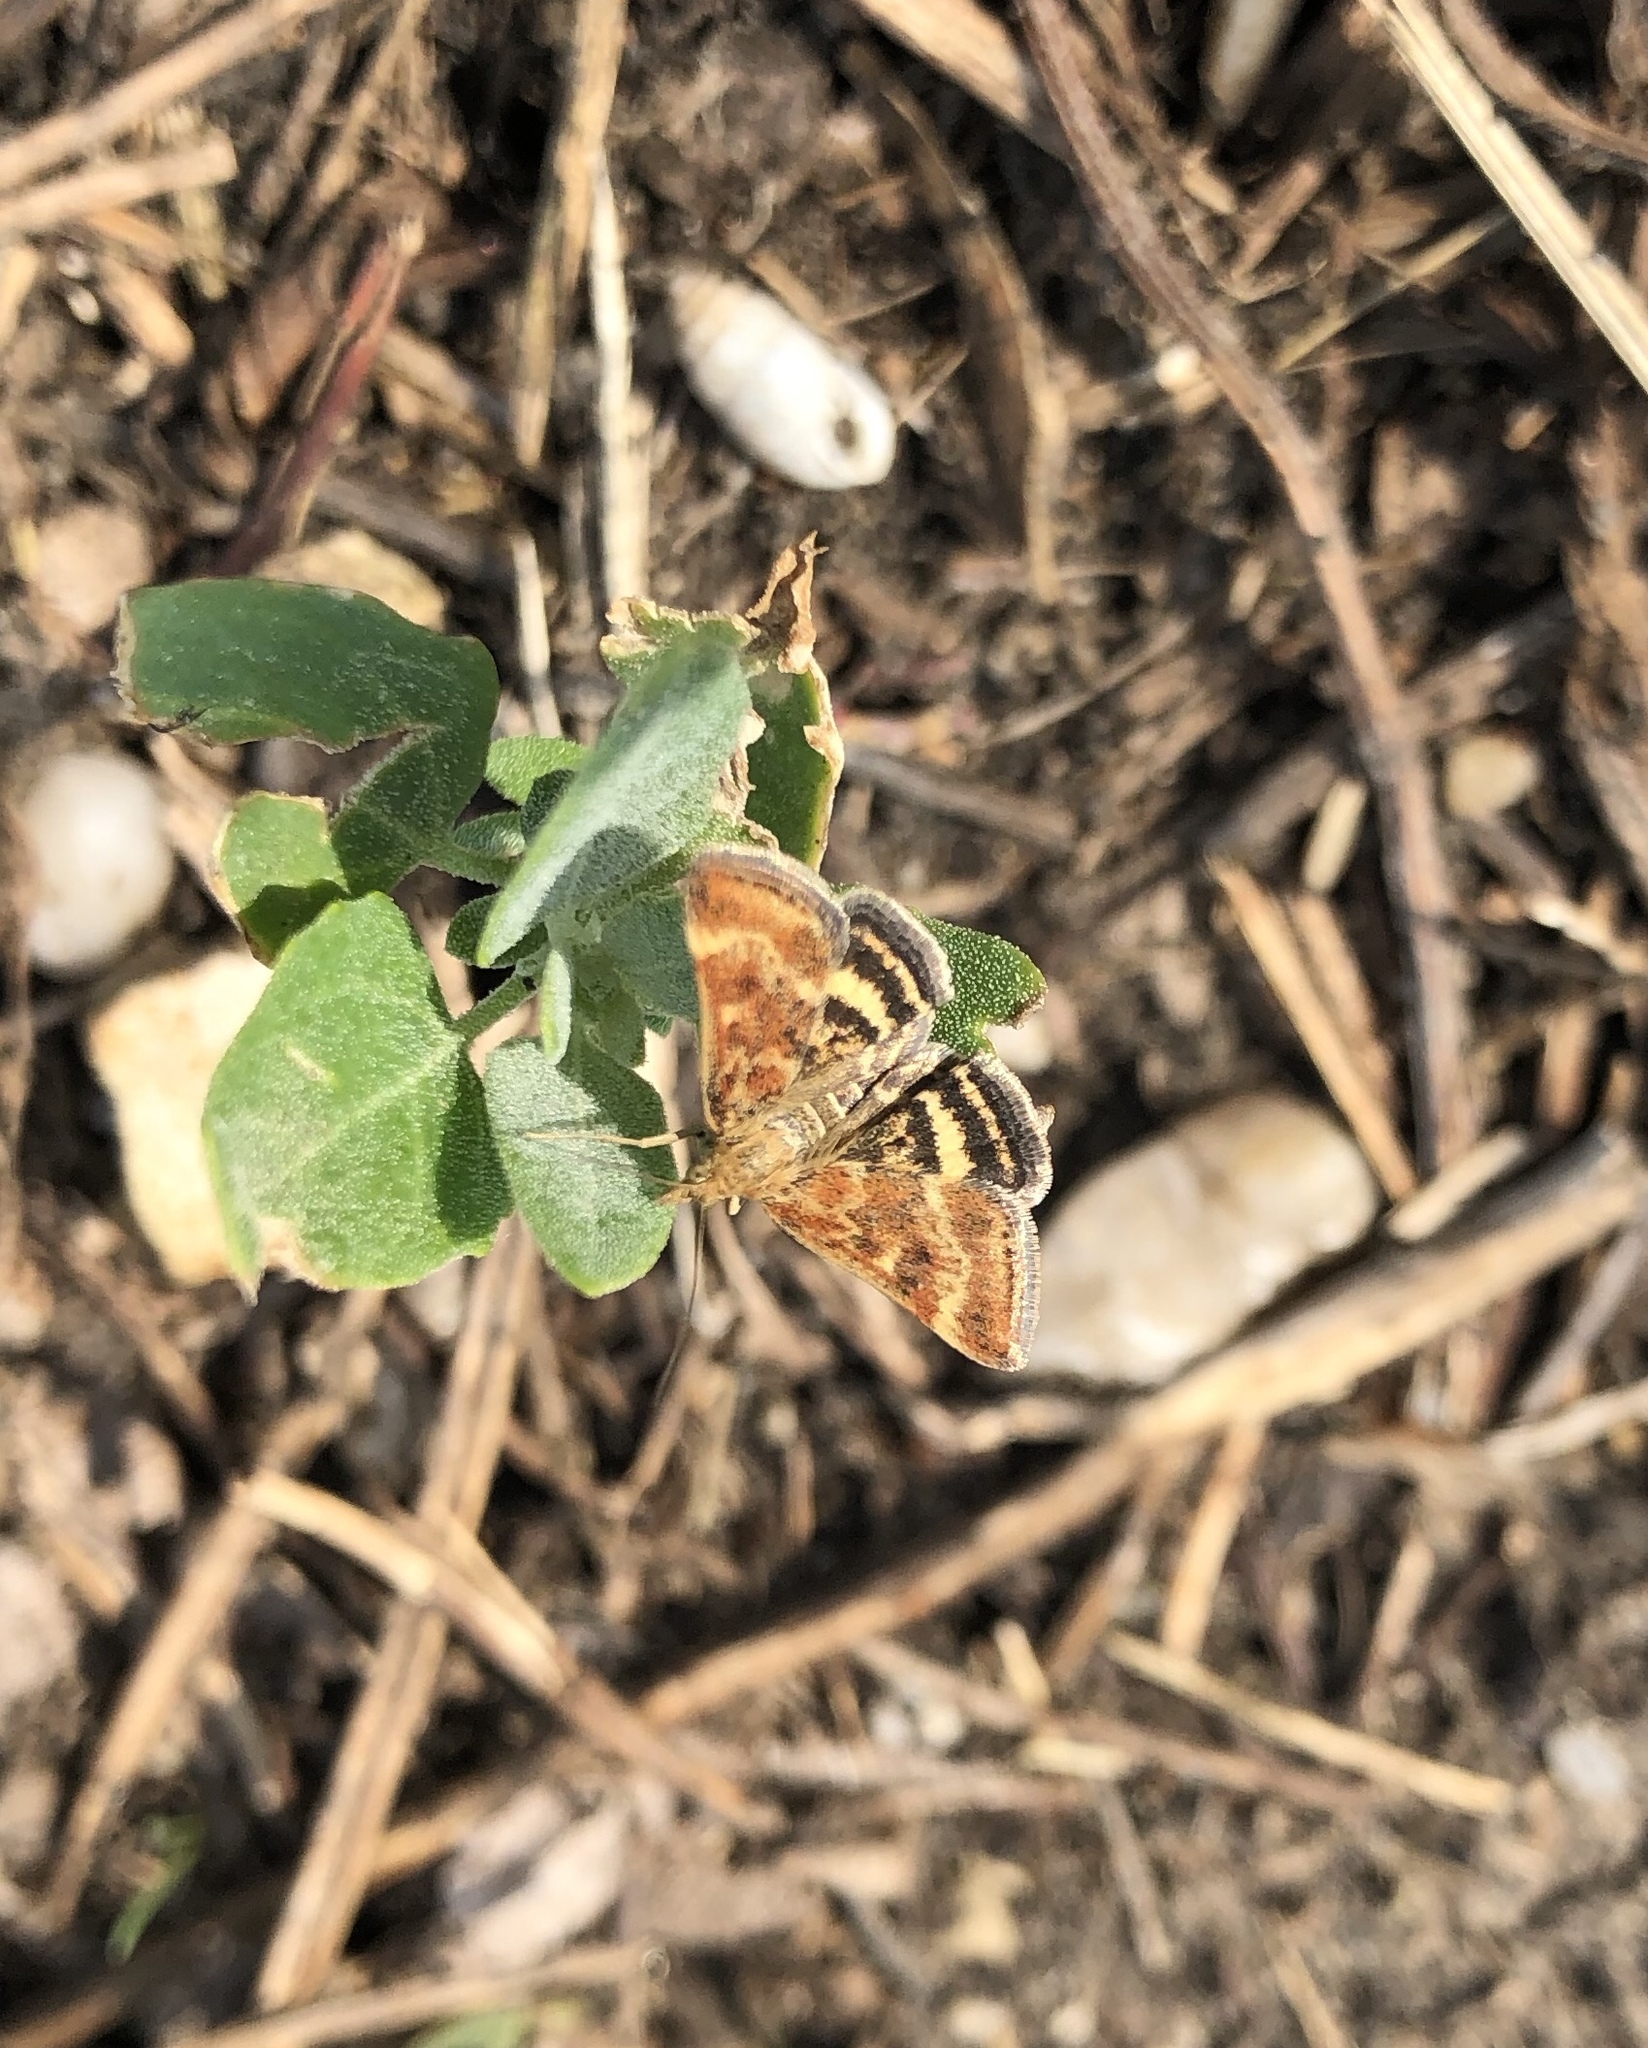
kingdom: Animalia
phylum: Arthropoda
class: Insecta
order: Lepidoptera
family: Crambidae
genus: Pyrausta
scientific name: Pyrausta despicata
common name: Straw-barred pearl
